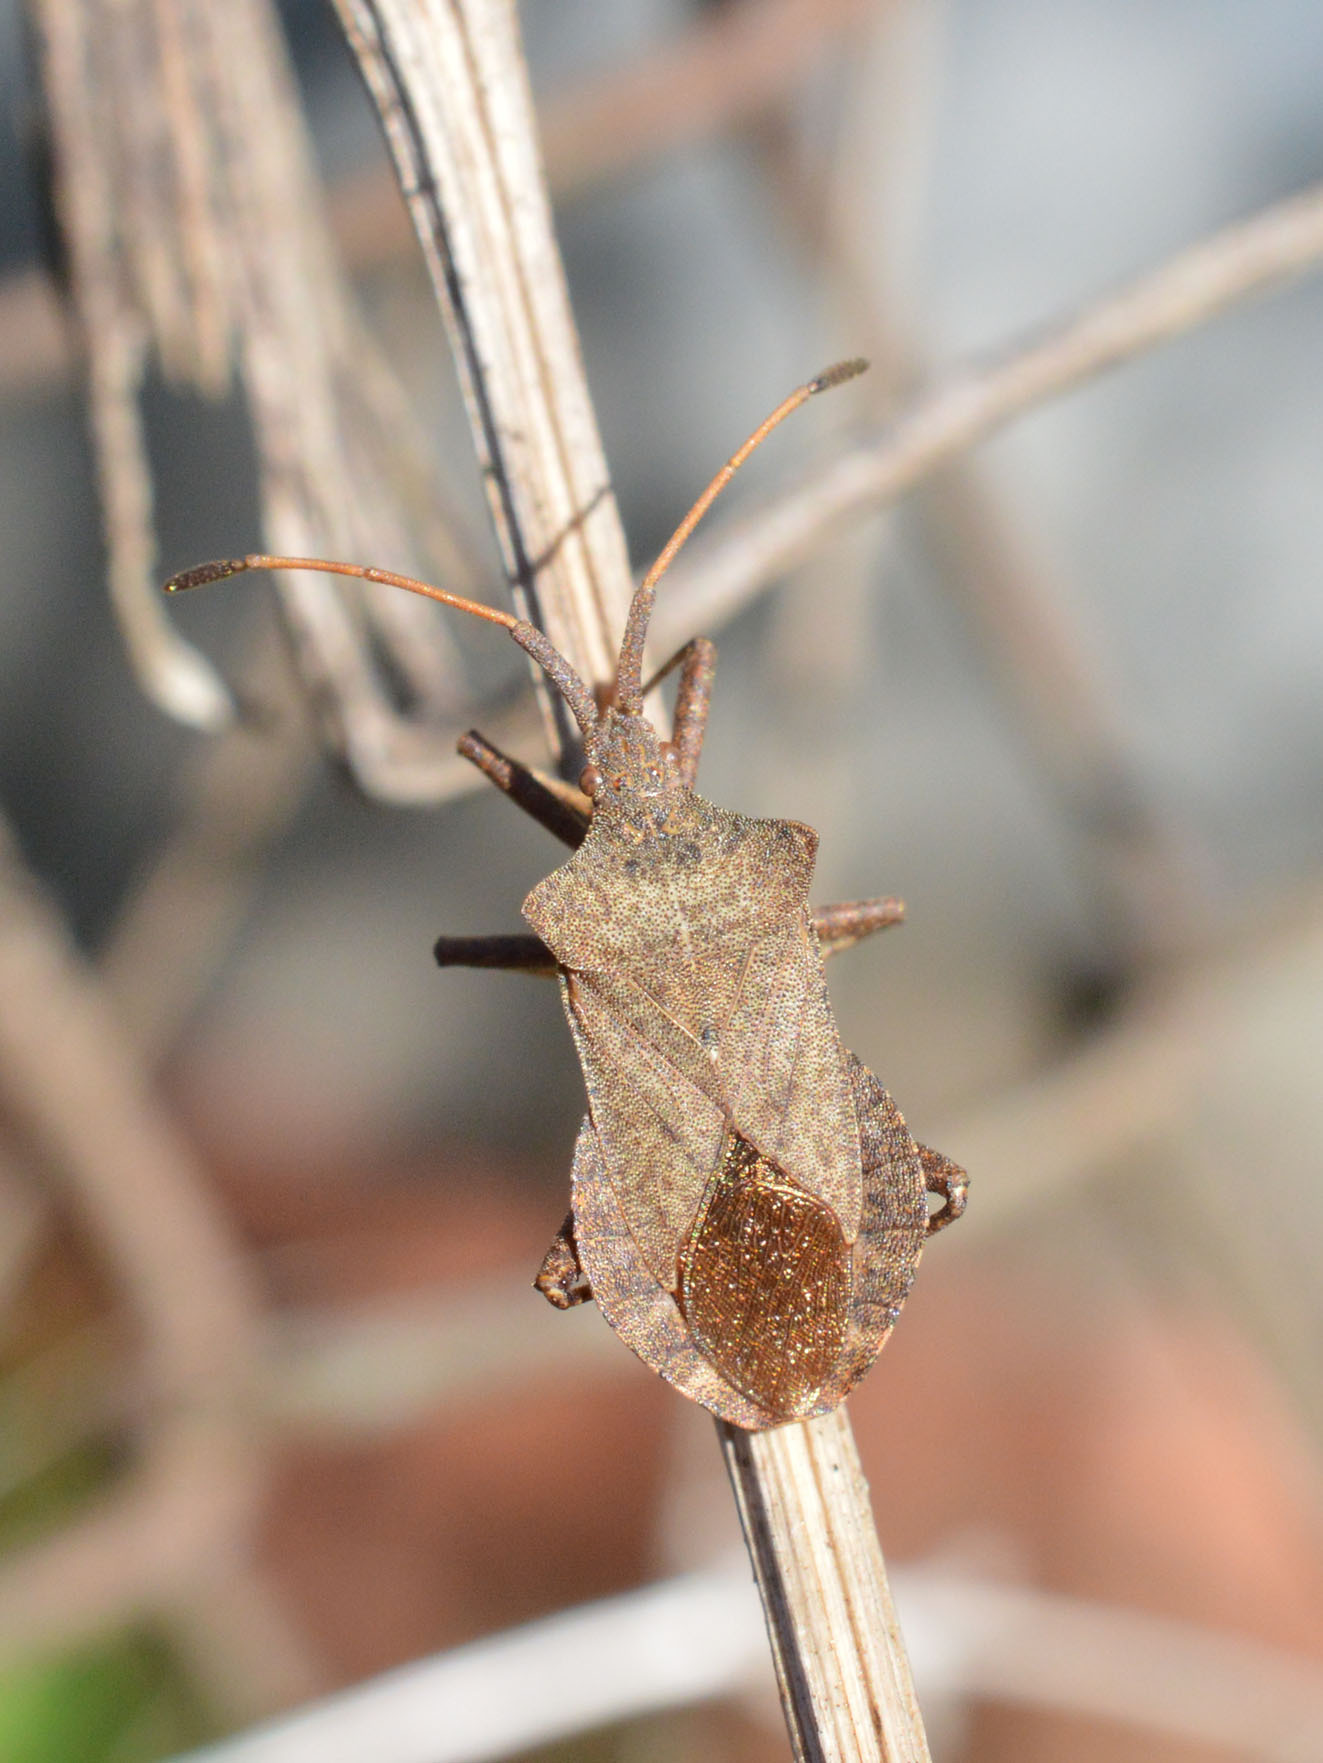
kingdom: Animalia
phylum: Arthropoda
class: Insecta
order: Hemiptera
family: Coreidae
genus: Coreus
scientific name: Coreus marginatus
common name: Dock bug
